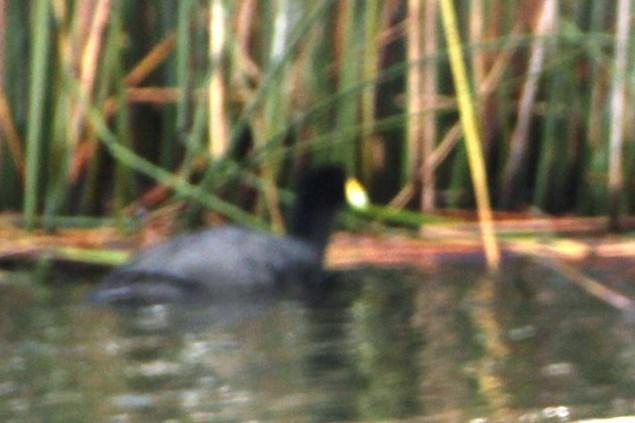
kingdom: Animalia
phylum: Chordata
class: Aves
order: Gruiformes
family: Rallidae
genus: Fulica
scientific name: Fulica ardesiaca
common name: Andean coot
